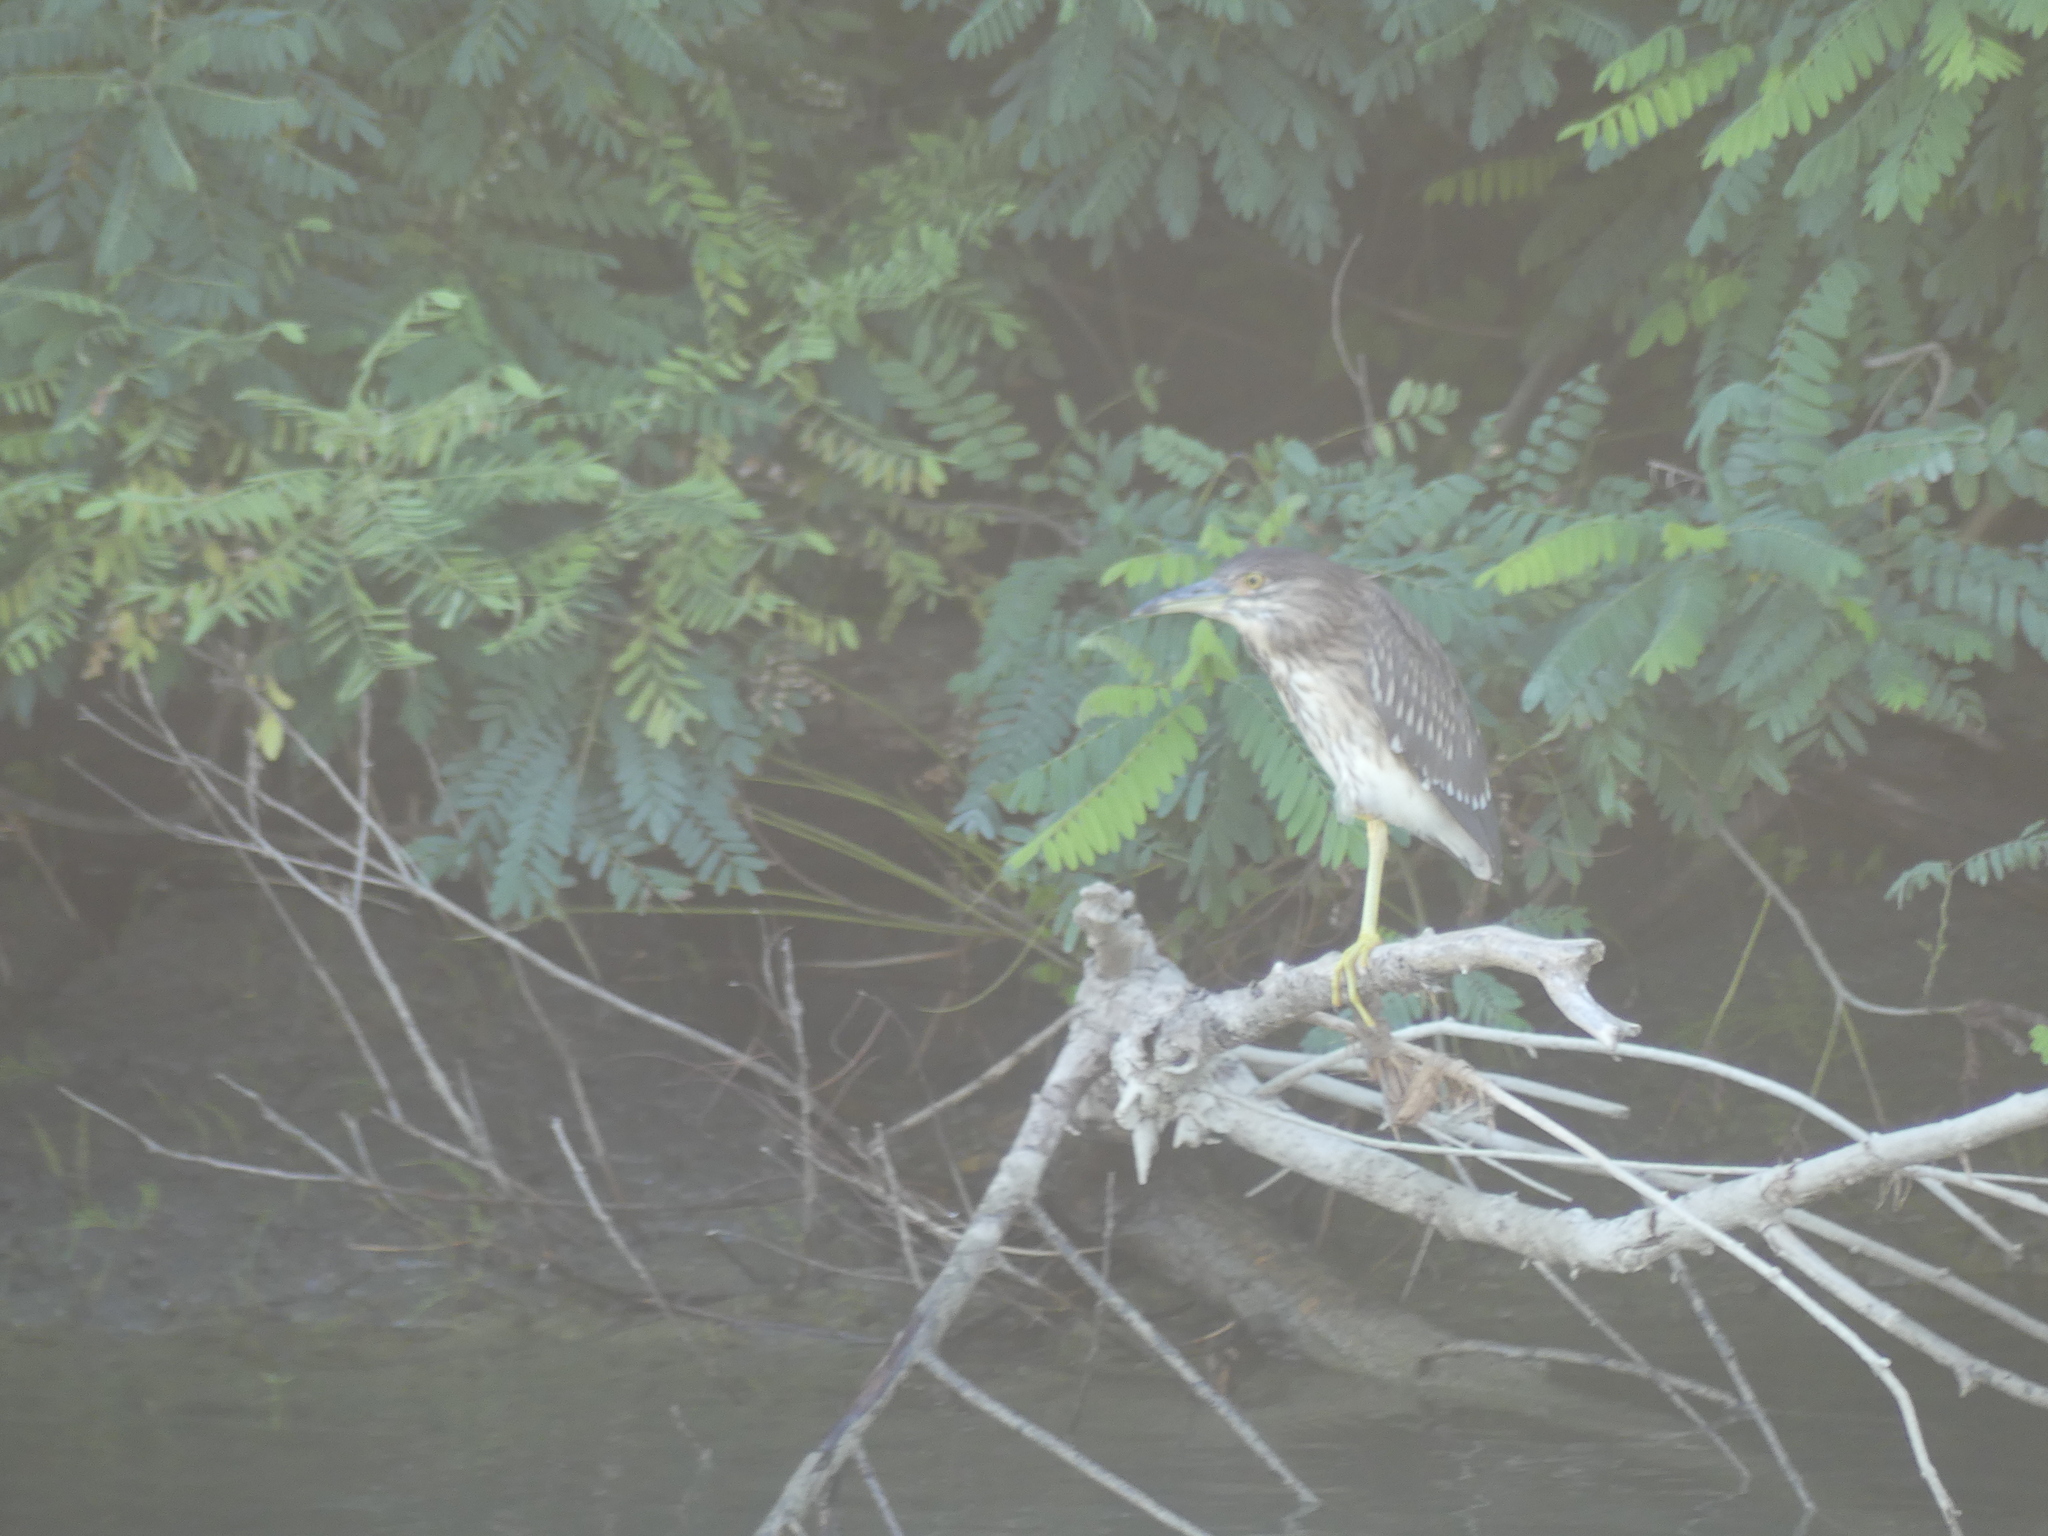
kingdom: Animalia
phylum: Chordata
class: Aves
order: Pelecaniformes
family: Ardeidae
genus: Nycticorax
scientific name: Nycticorax nycticorax
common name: Black-crowned night heron
